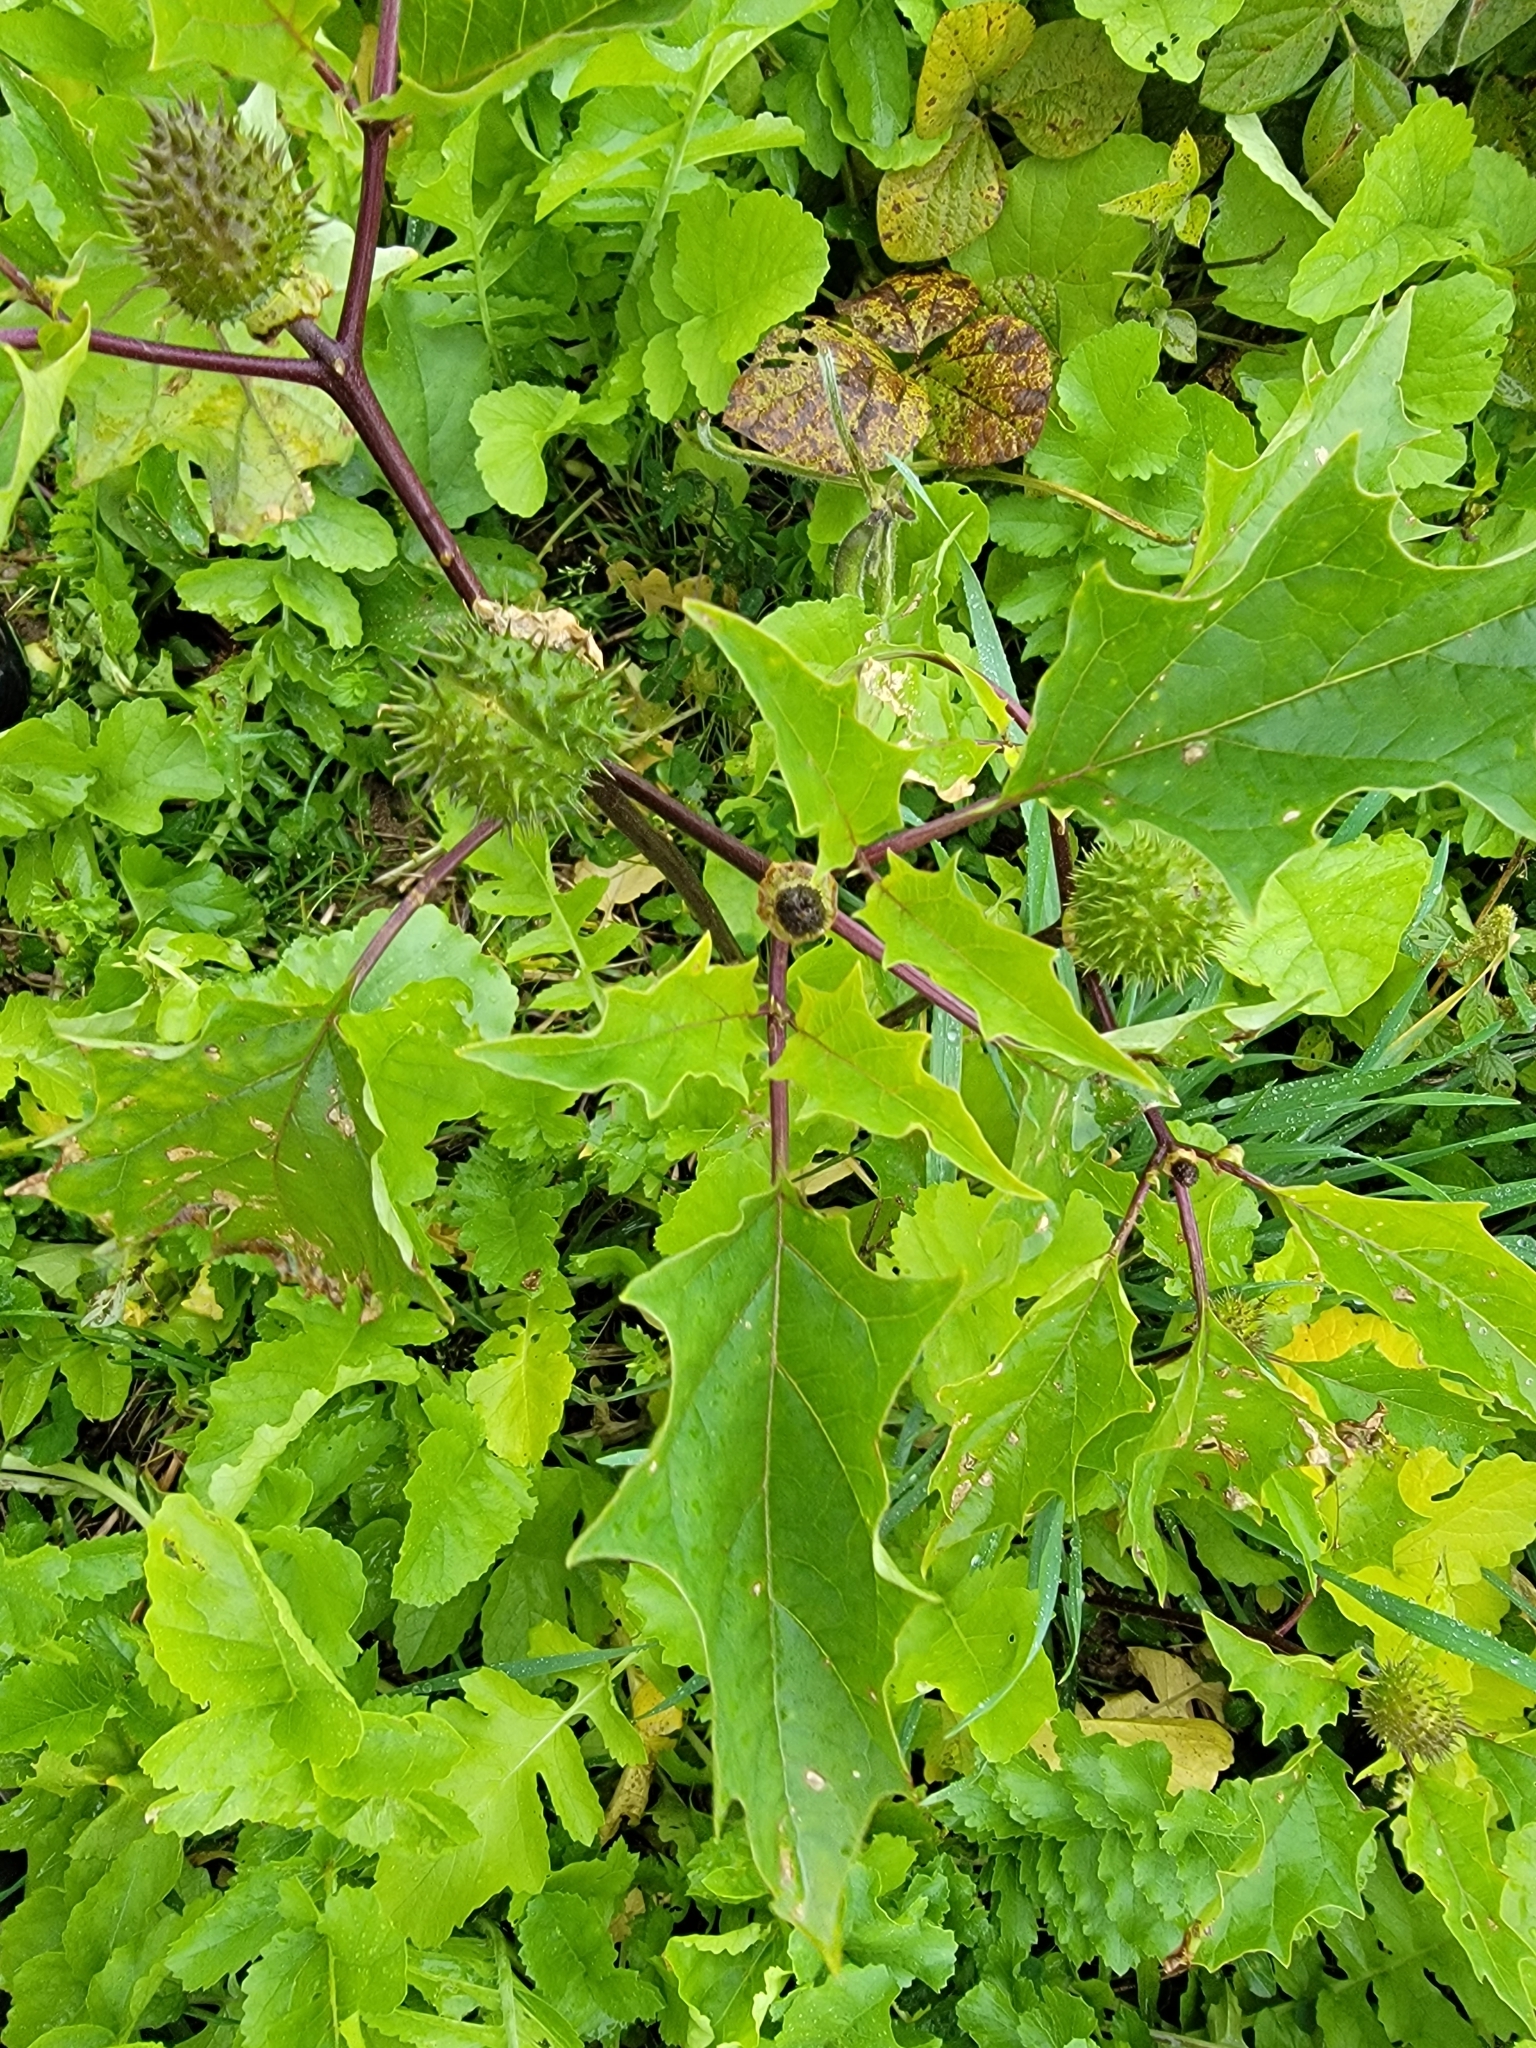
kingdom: Plantae
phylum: Tracheophyta
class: Magnoliopsida
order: Solanales
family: Solanaceae
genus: Datura
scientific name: Datura stramonium
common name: Thorn-apple
